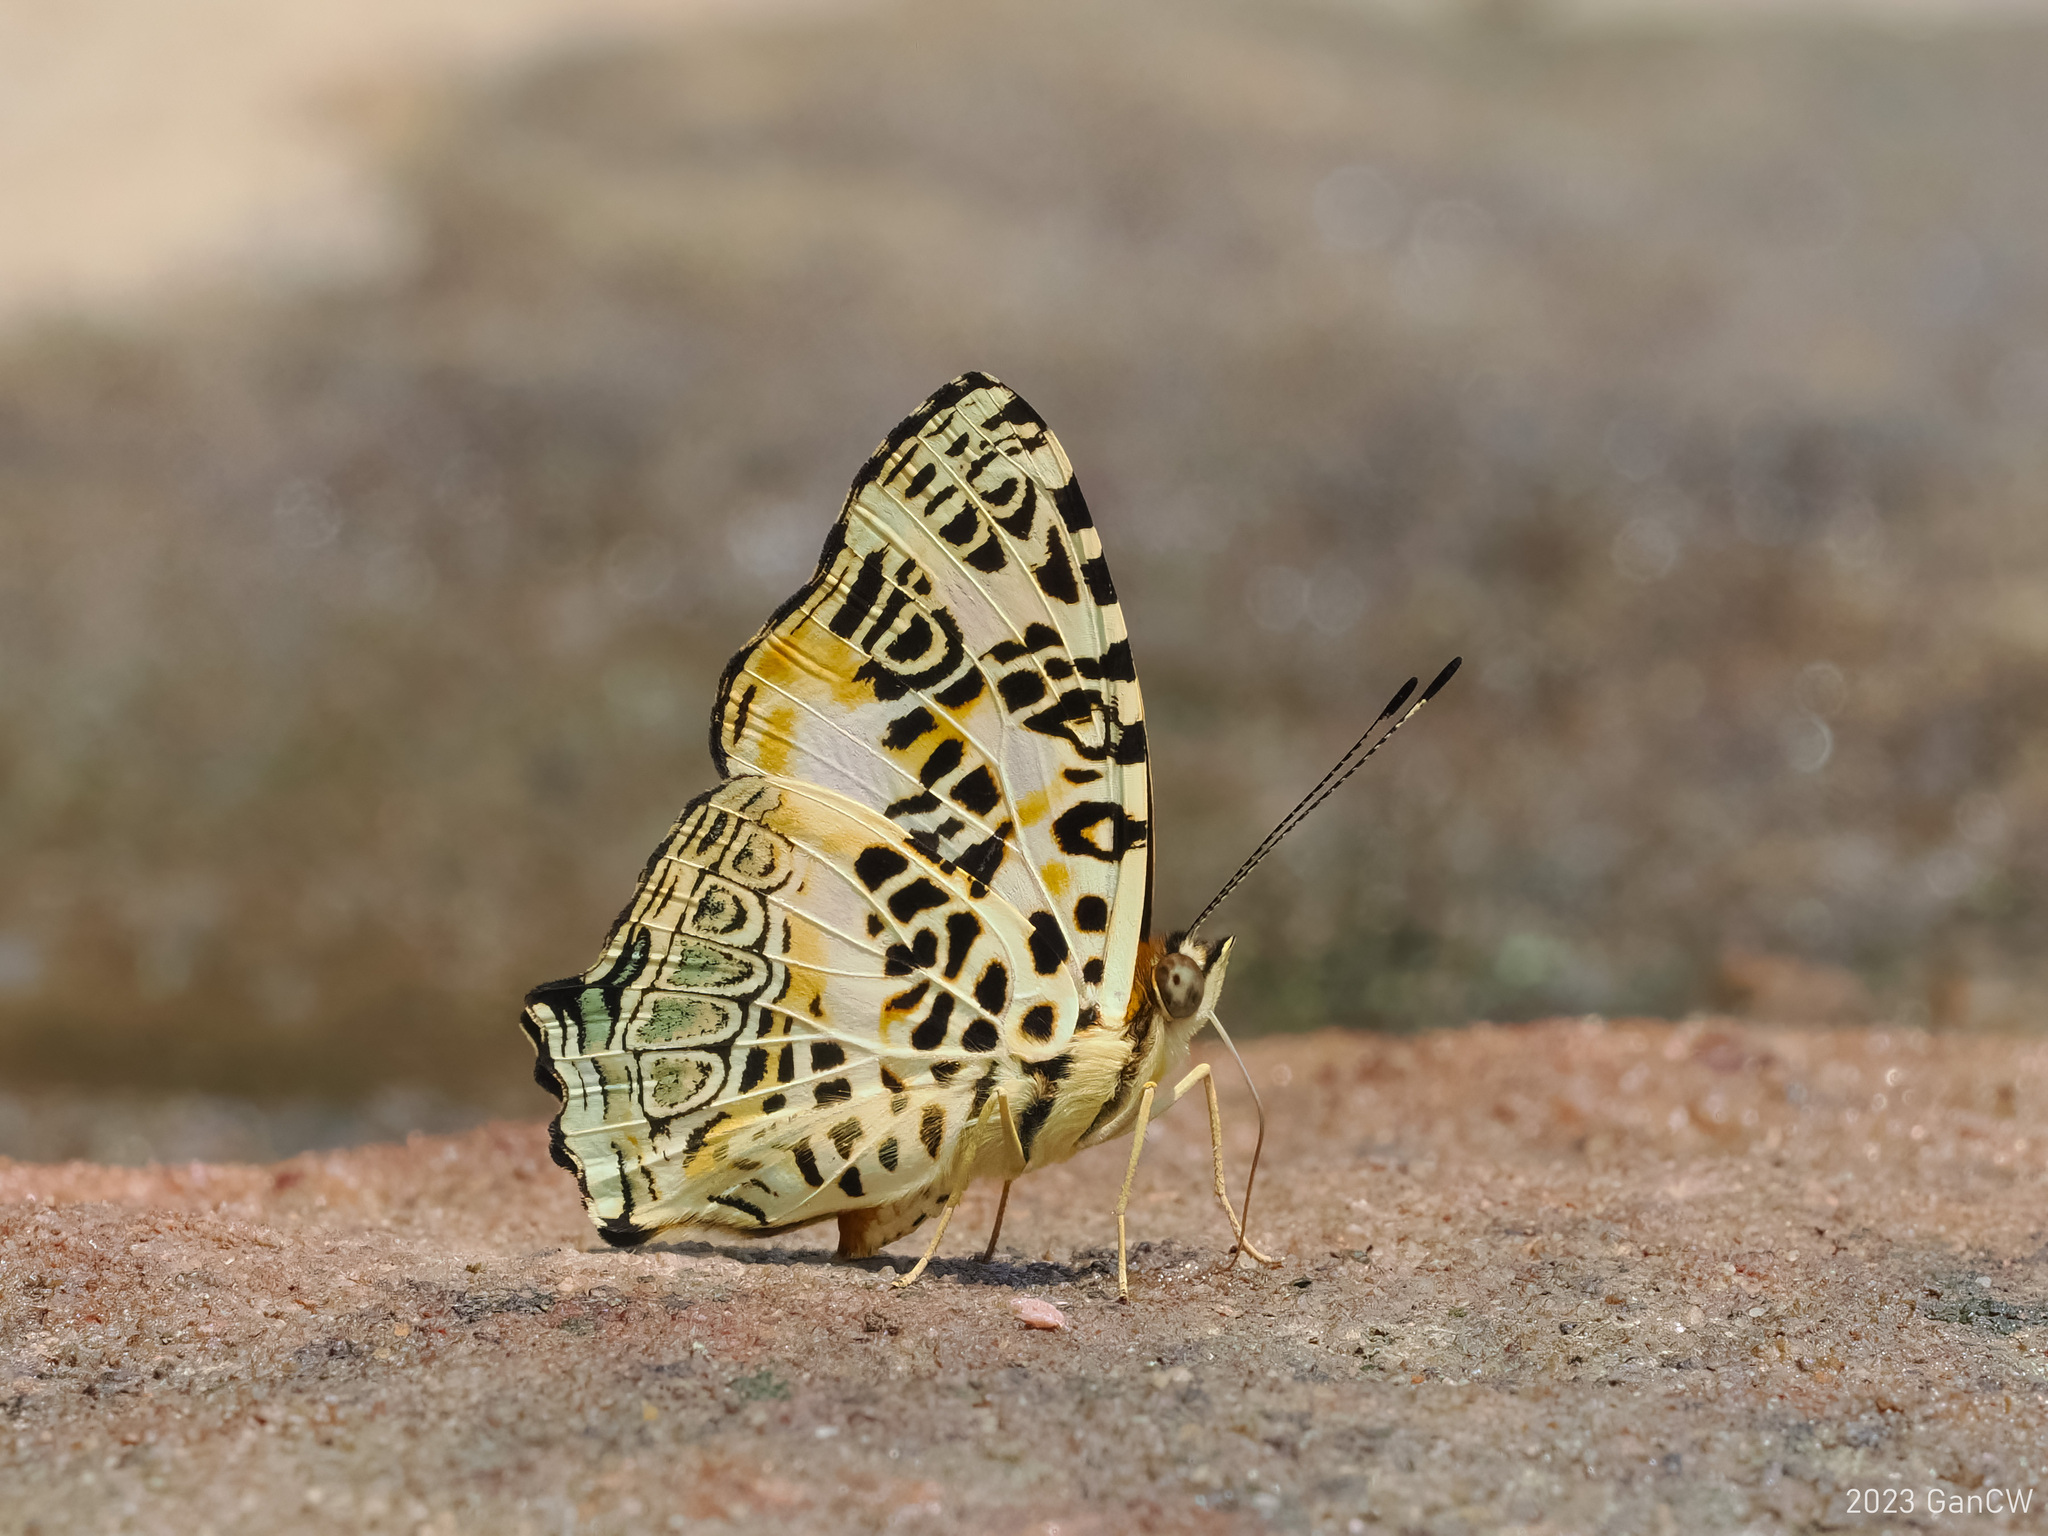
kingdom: Animalia
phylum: Arthropoda
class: Insecta
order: Lepidoptera
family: Nymphalidae
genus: Symbrenthia
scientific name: Symbrenthia hypselis
